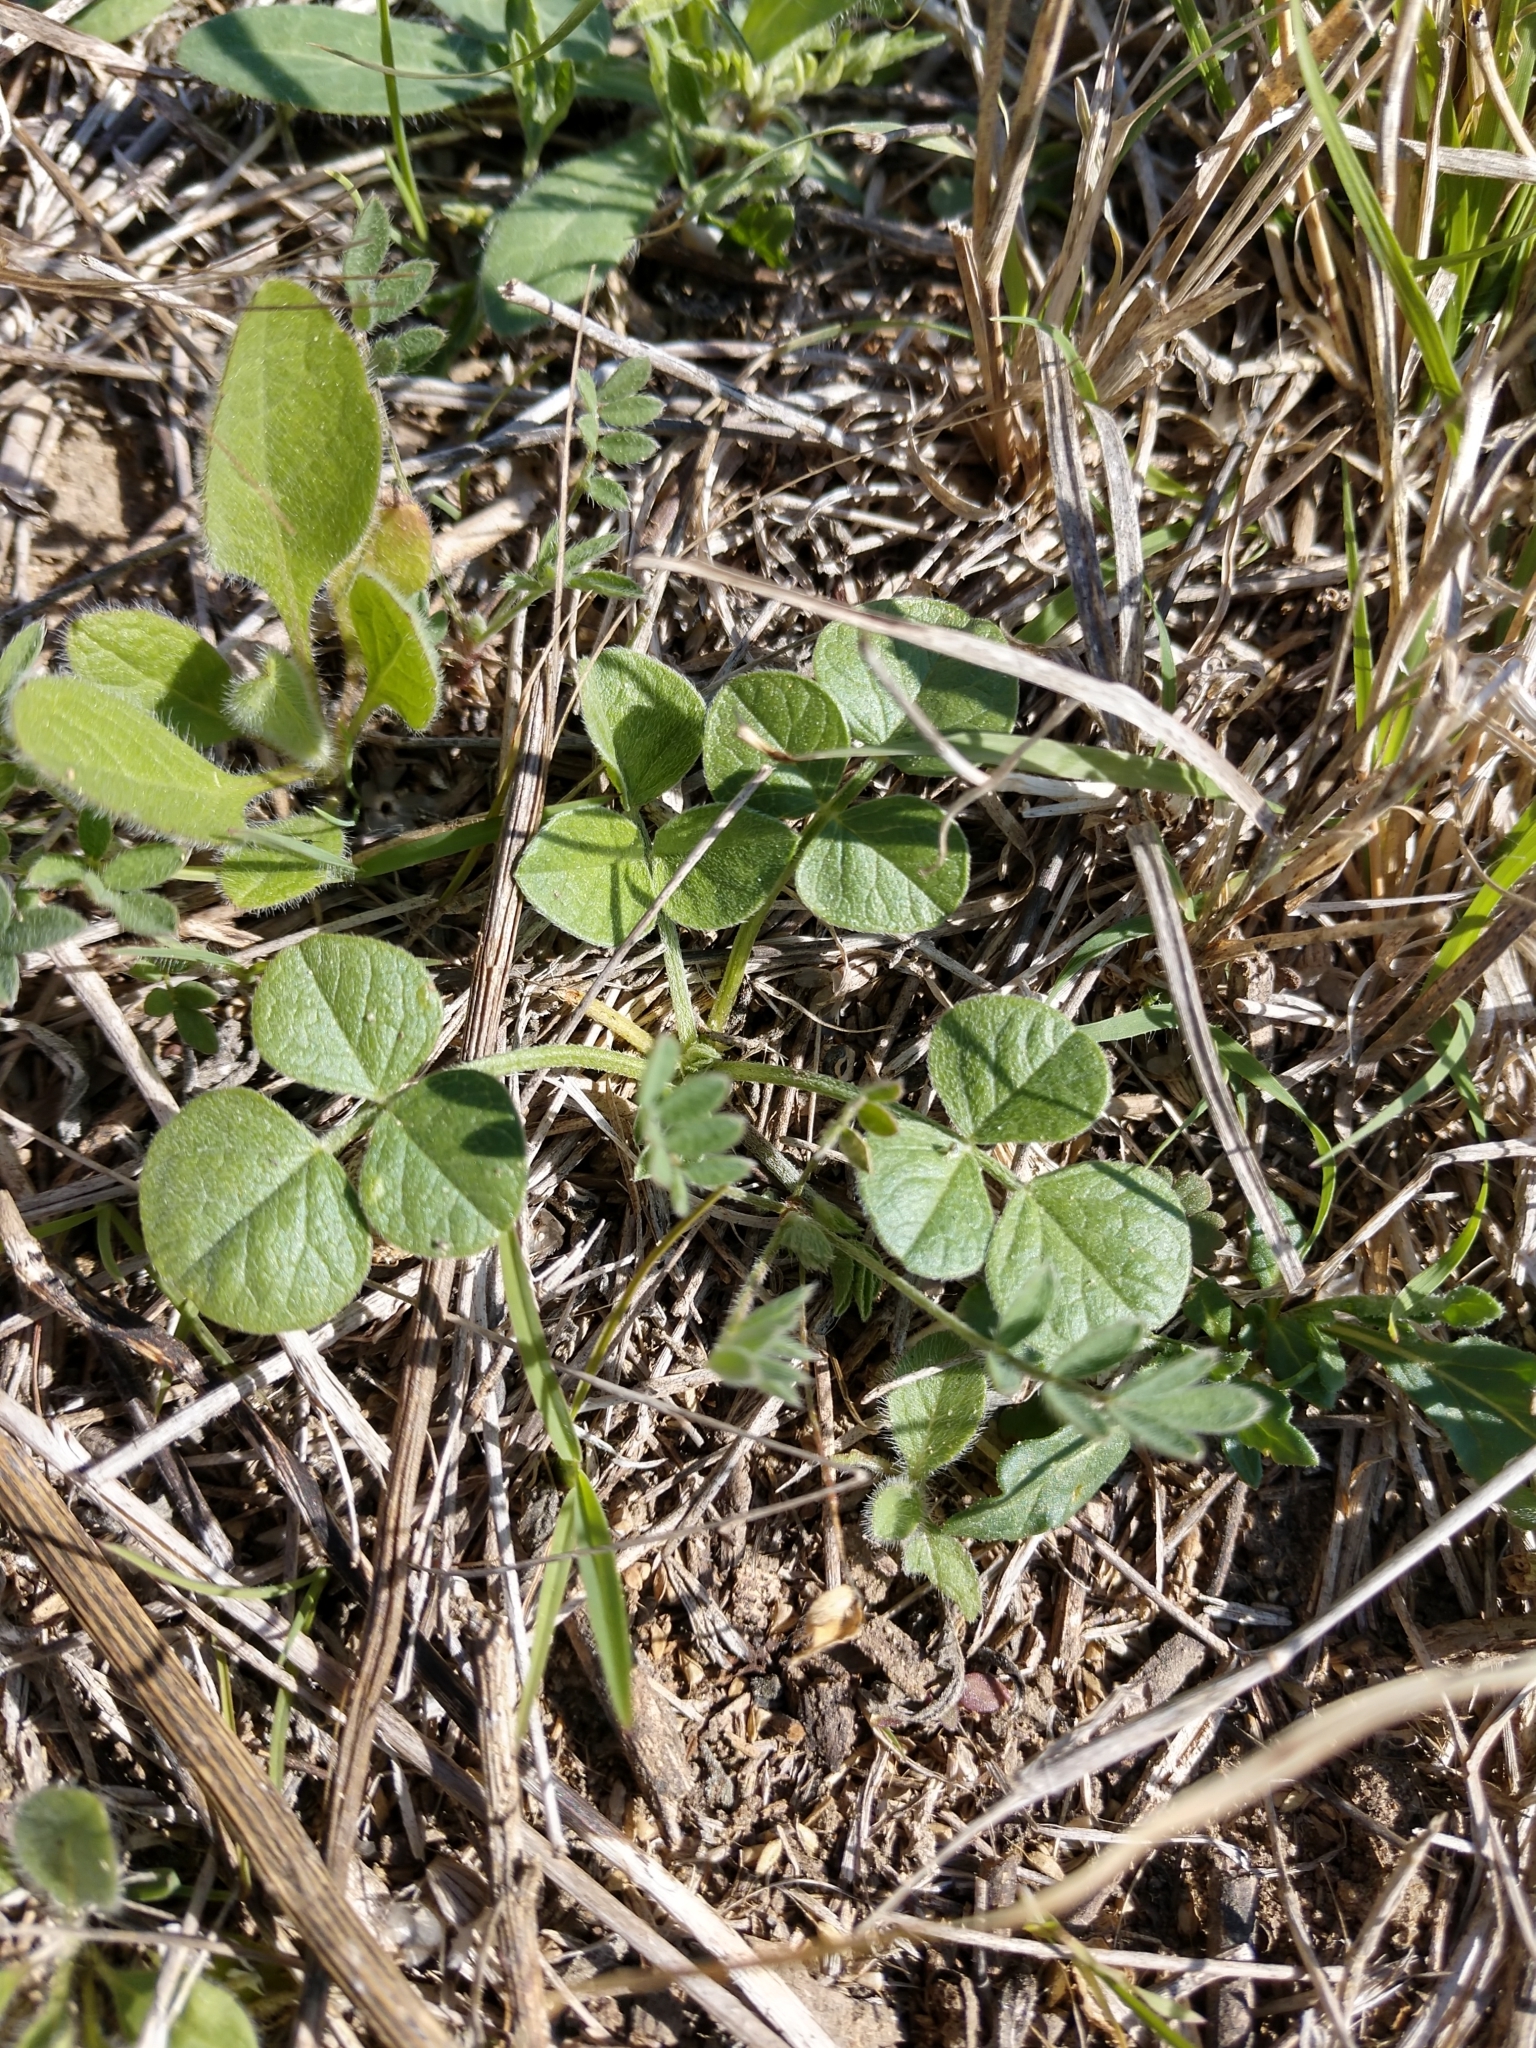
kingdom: Plantae
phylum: Tracheophyta
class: Magnoliopsida
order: Fabales
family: Fabaceae
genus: Pediomelum
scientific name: Pediomelum rhombifolium
